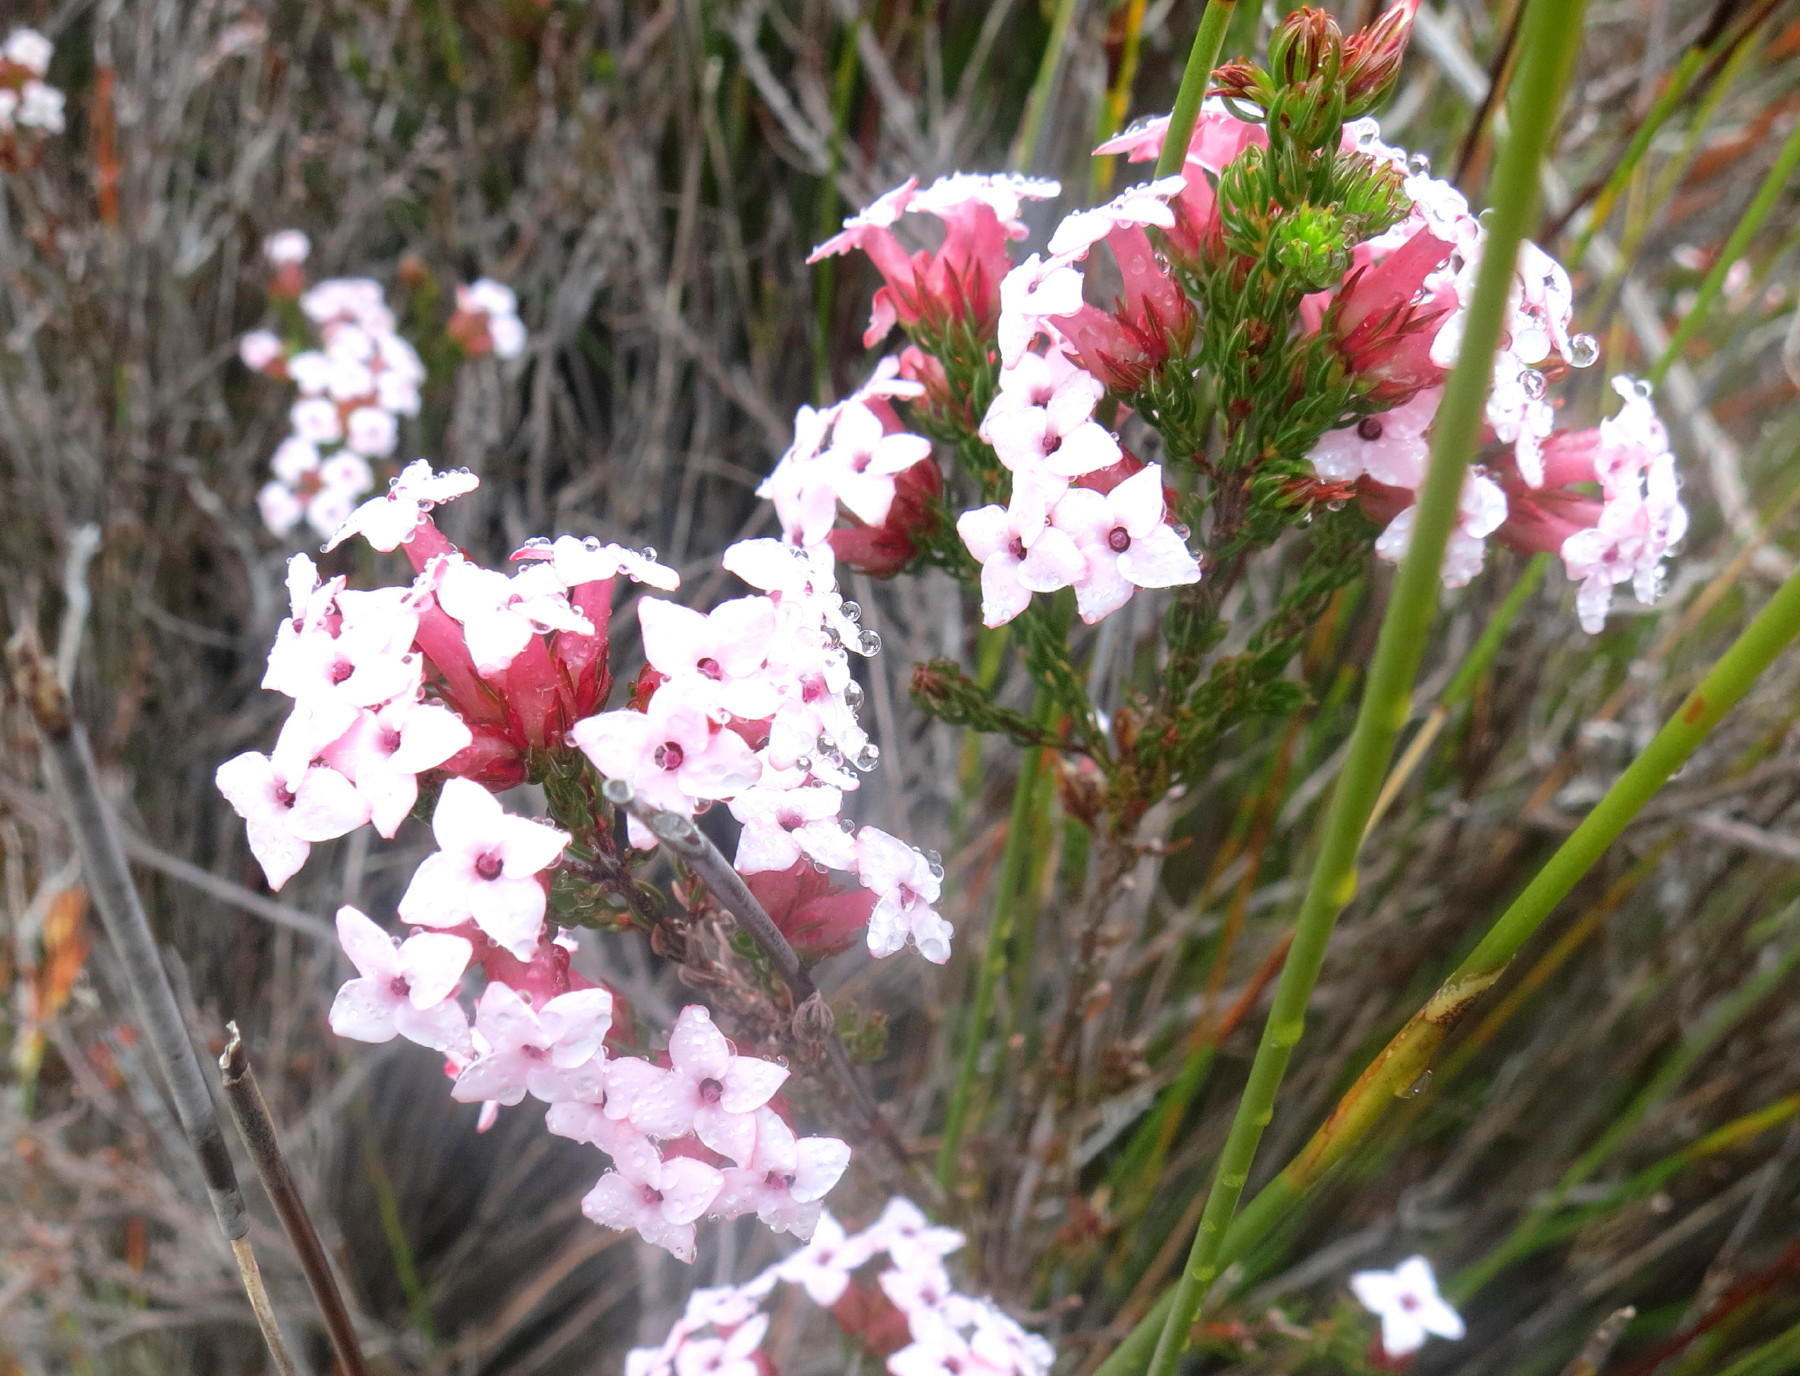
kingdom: Plantae
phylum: Tracheophyta
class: Magnoliopsida
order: Ericales
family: Ericaceae
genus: Erica
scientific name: Erica walkeria
